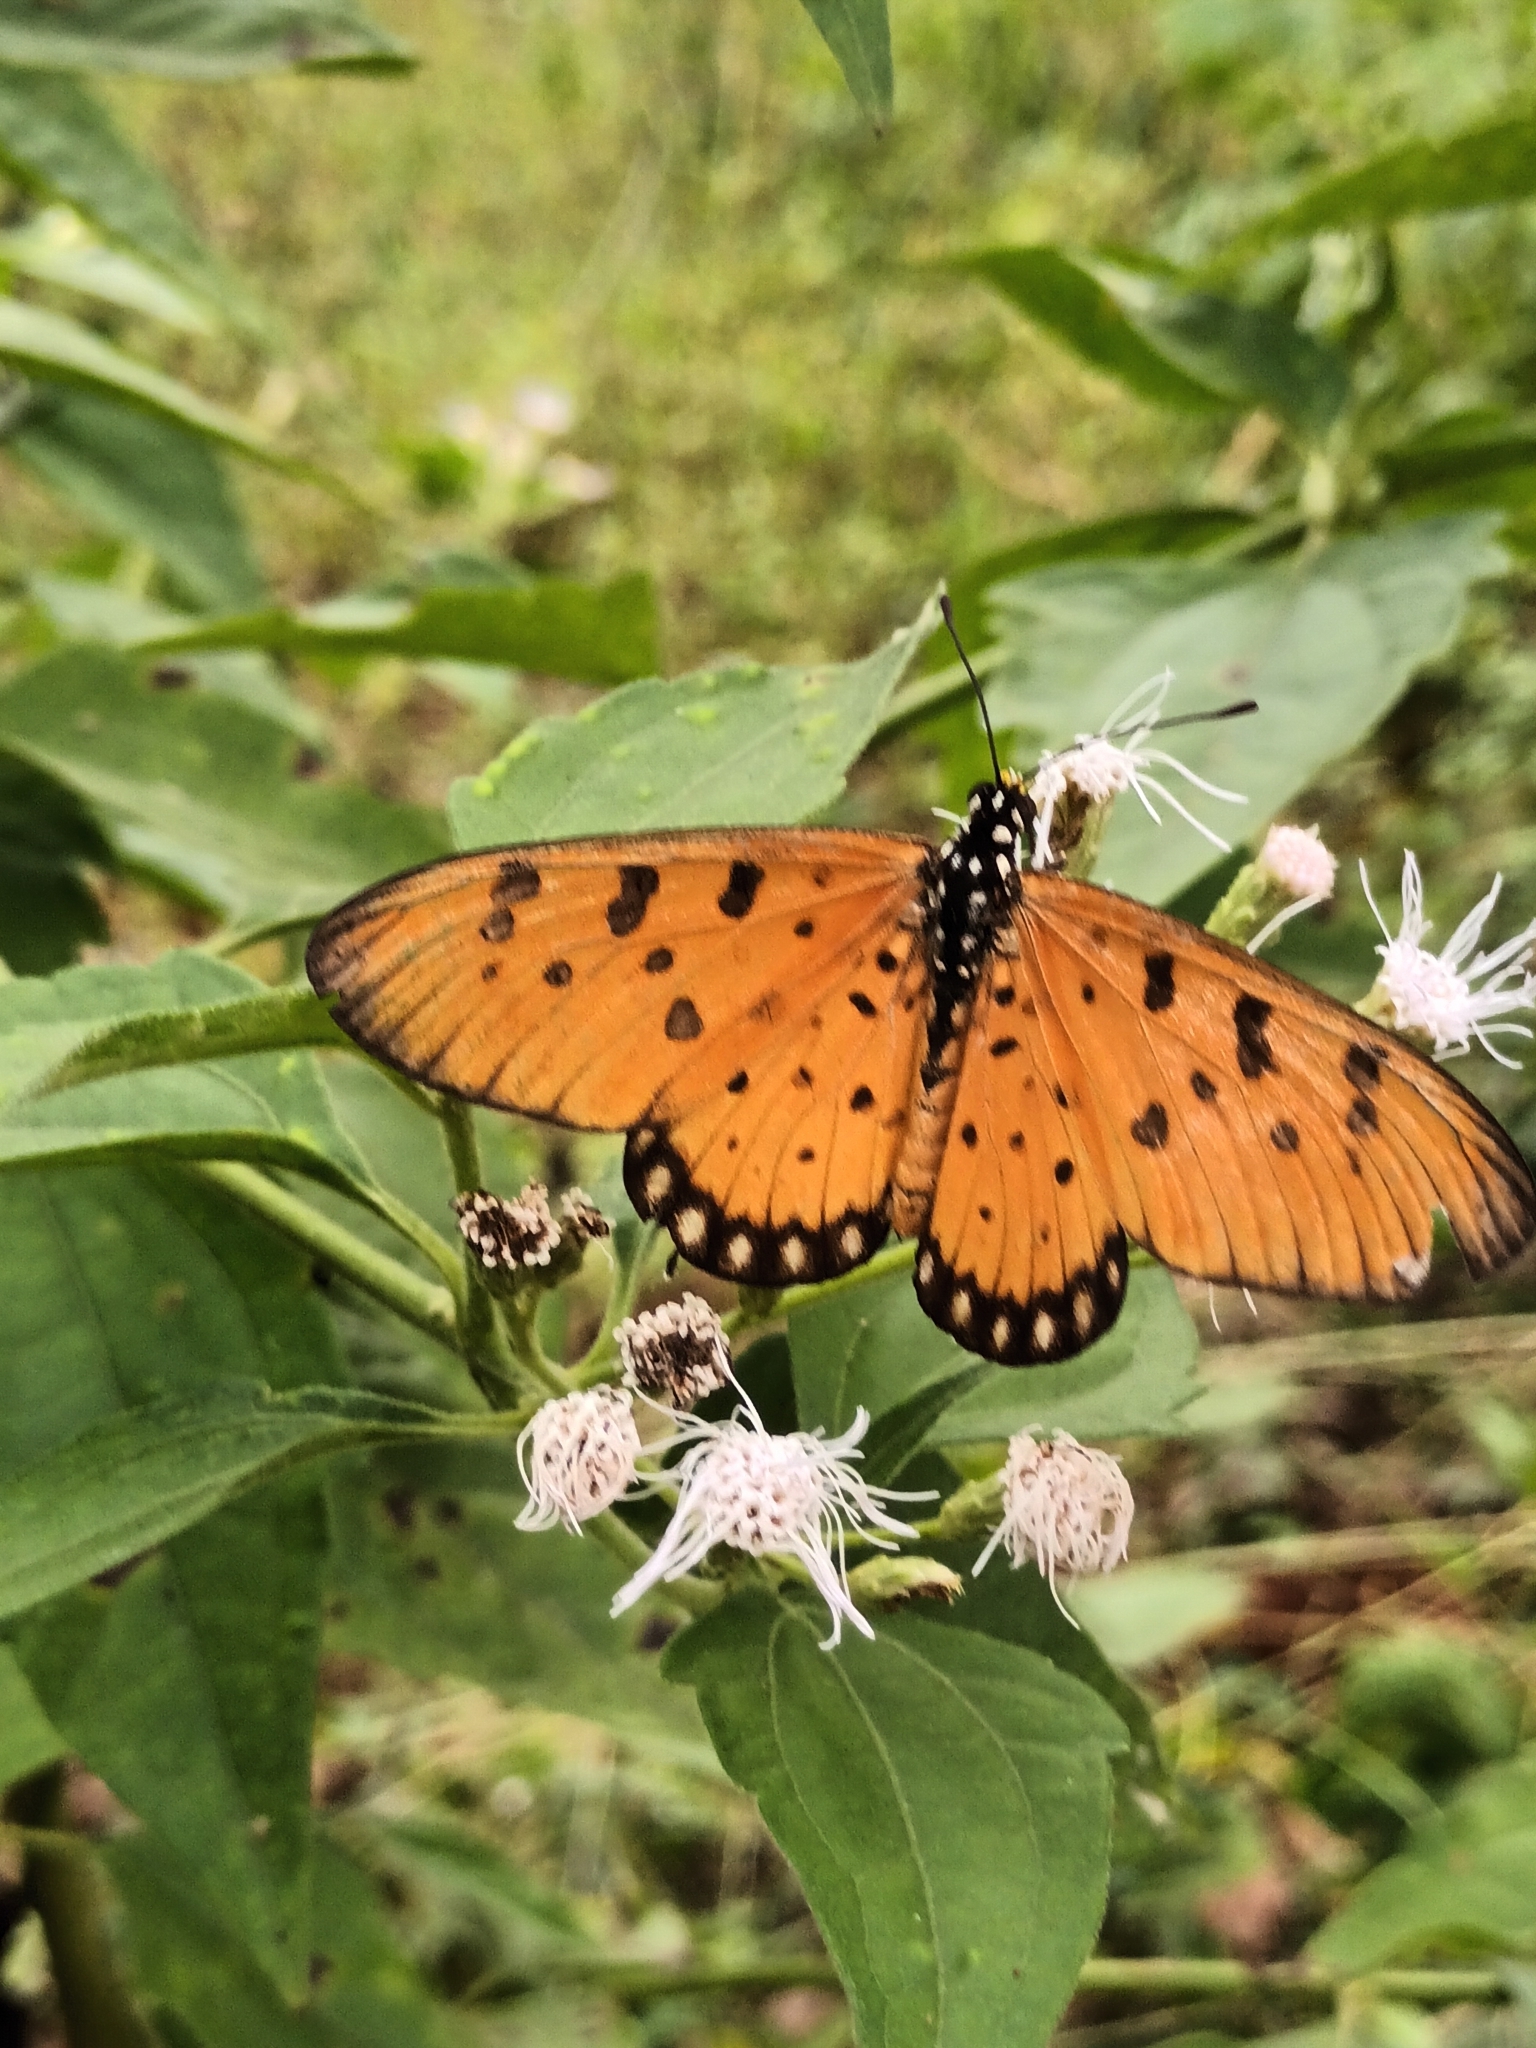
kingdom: Animalia
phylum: Arthropoda
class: Insecta
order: Lepidoptera
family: Nymphalidae
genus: Acraea
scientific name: Acraea terpsicore
